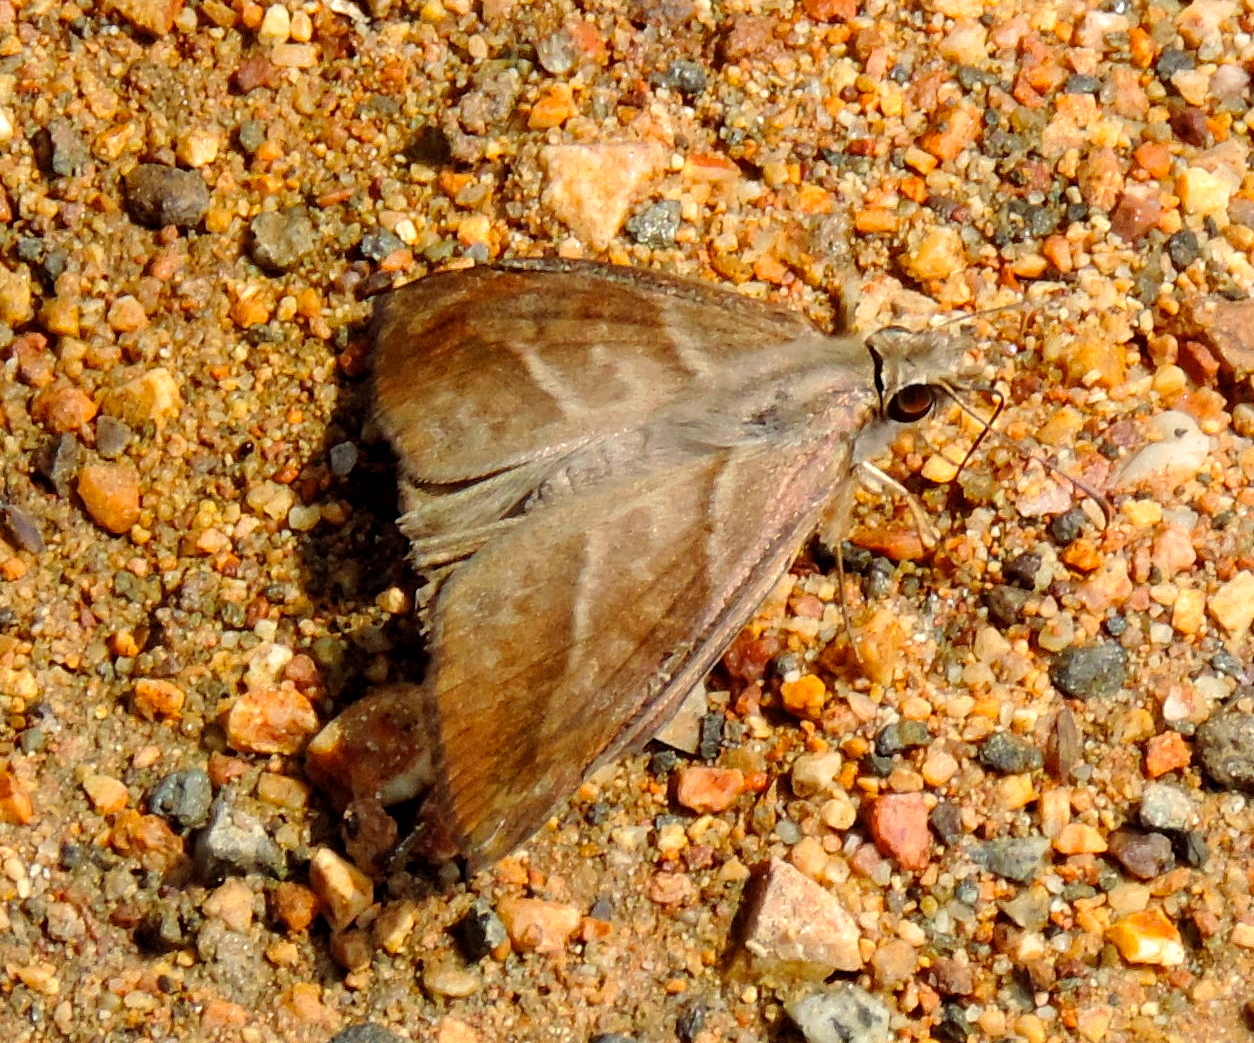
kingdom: Animalia
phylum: Arthropoda
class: Insecta
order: Lepidoptera
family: Hesperiidae
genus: Timochares
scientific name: Timochares trifasciata
